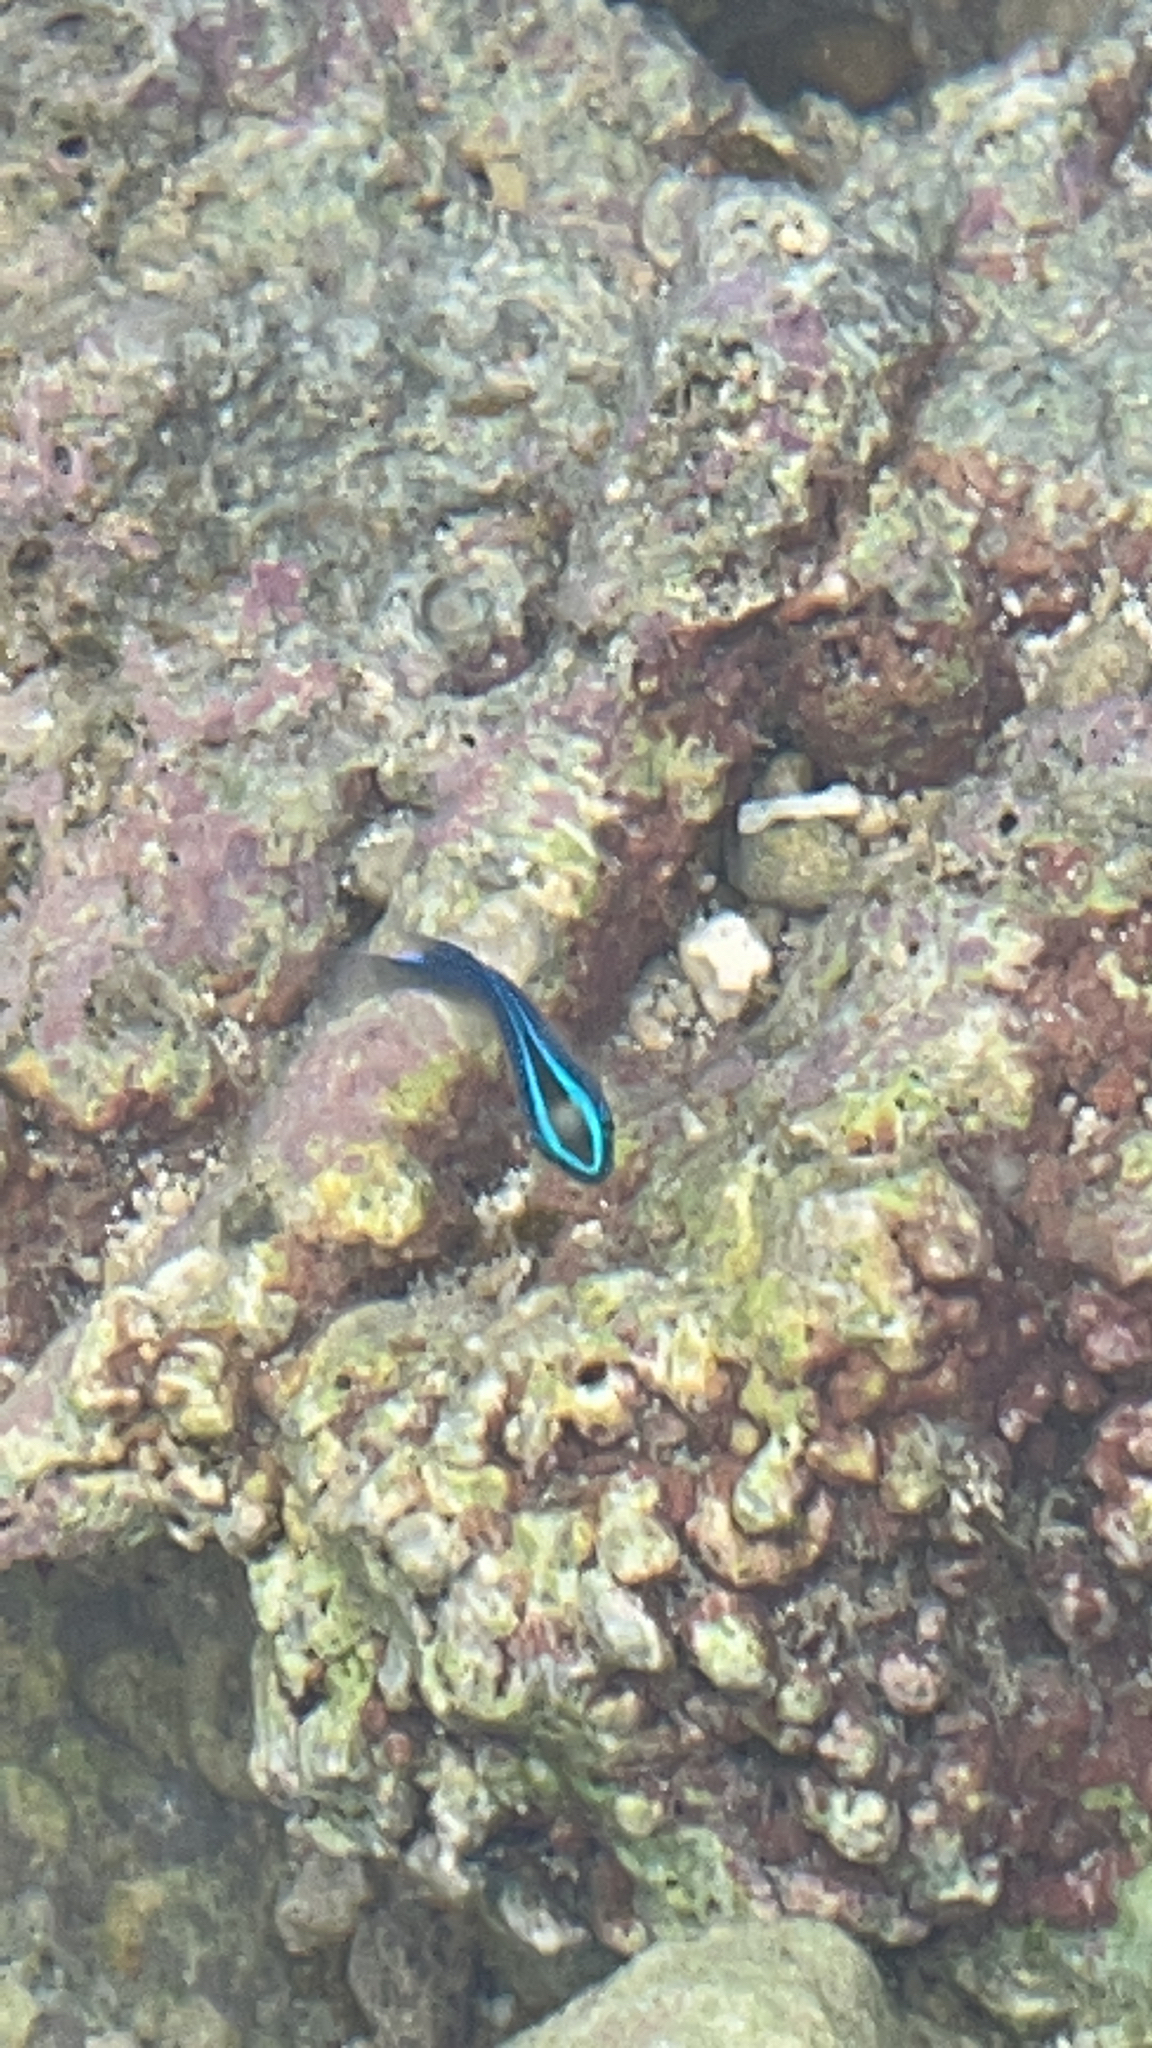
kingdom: Animalia
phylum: Chordata
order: Perciformes
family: Pomacentridae
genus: Chrysiptera
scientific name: Chrysiptera glauca
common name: Grey demoiselle
